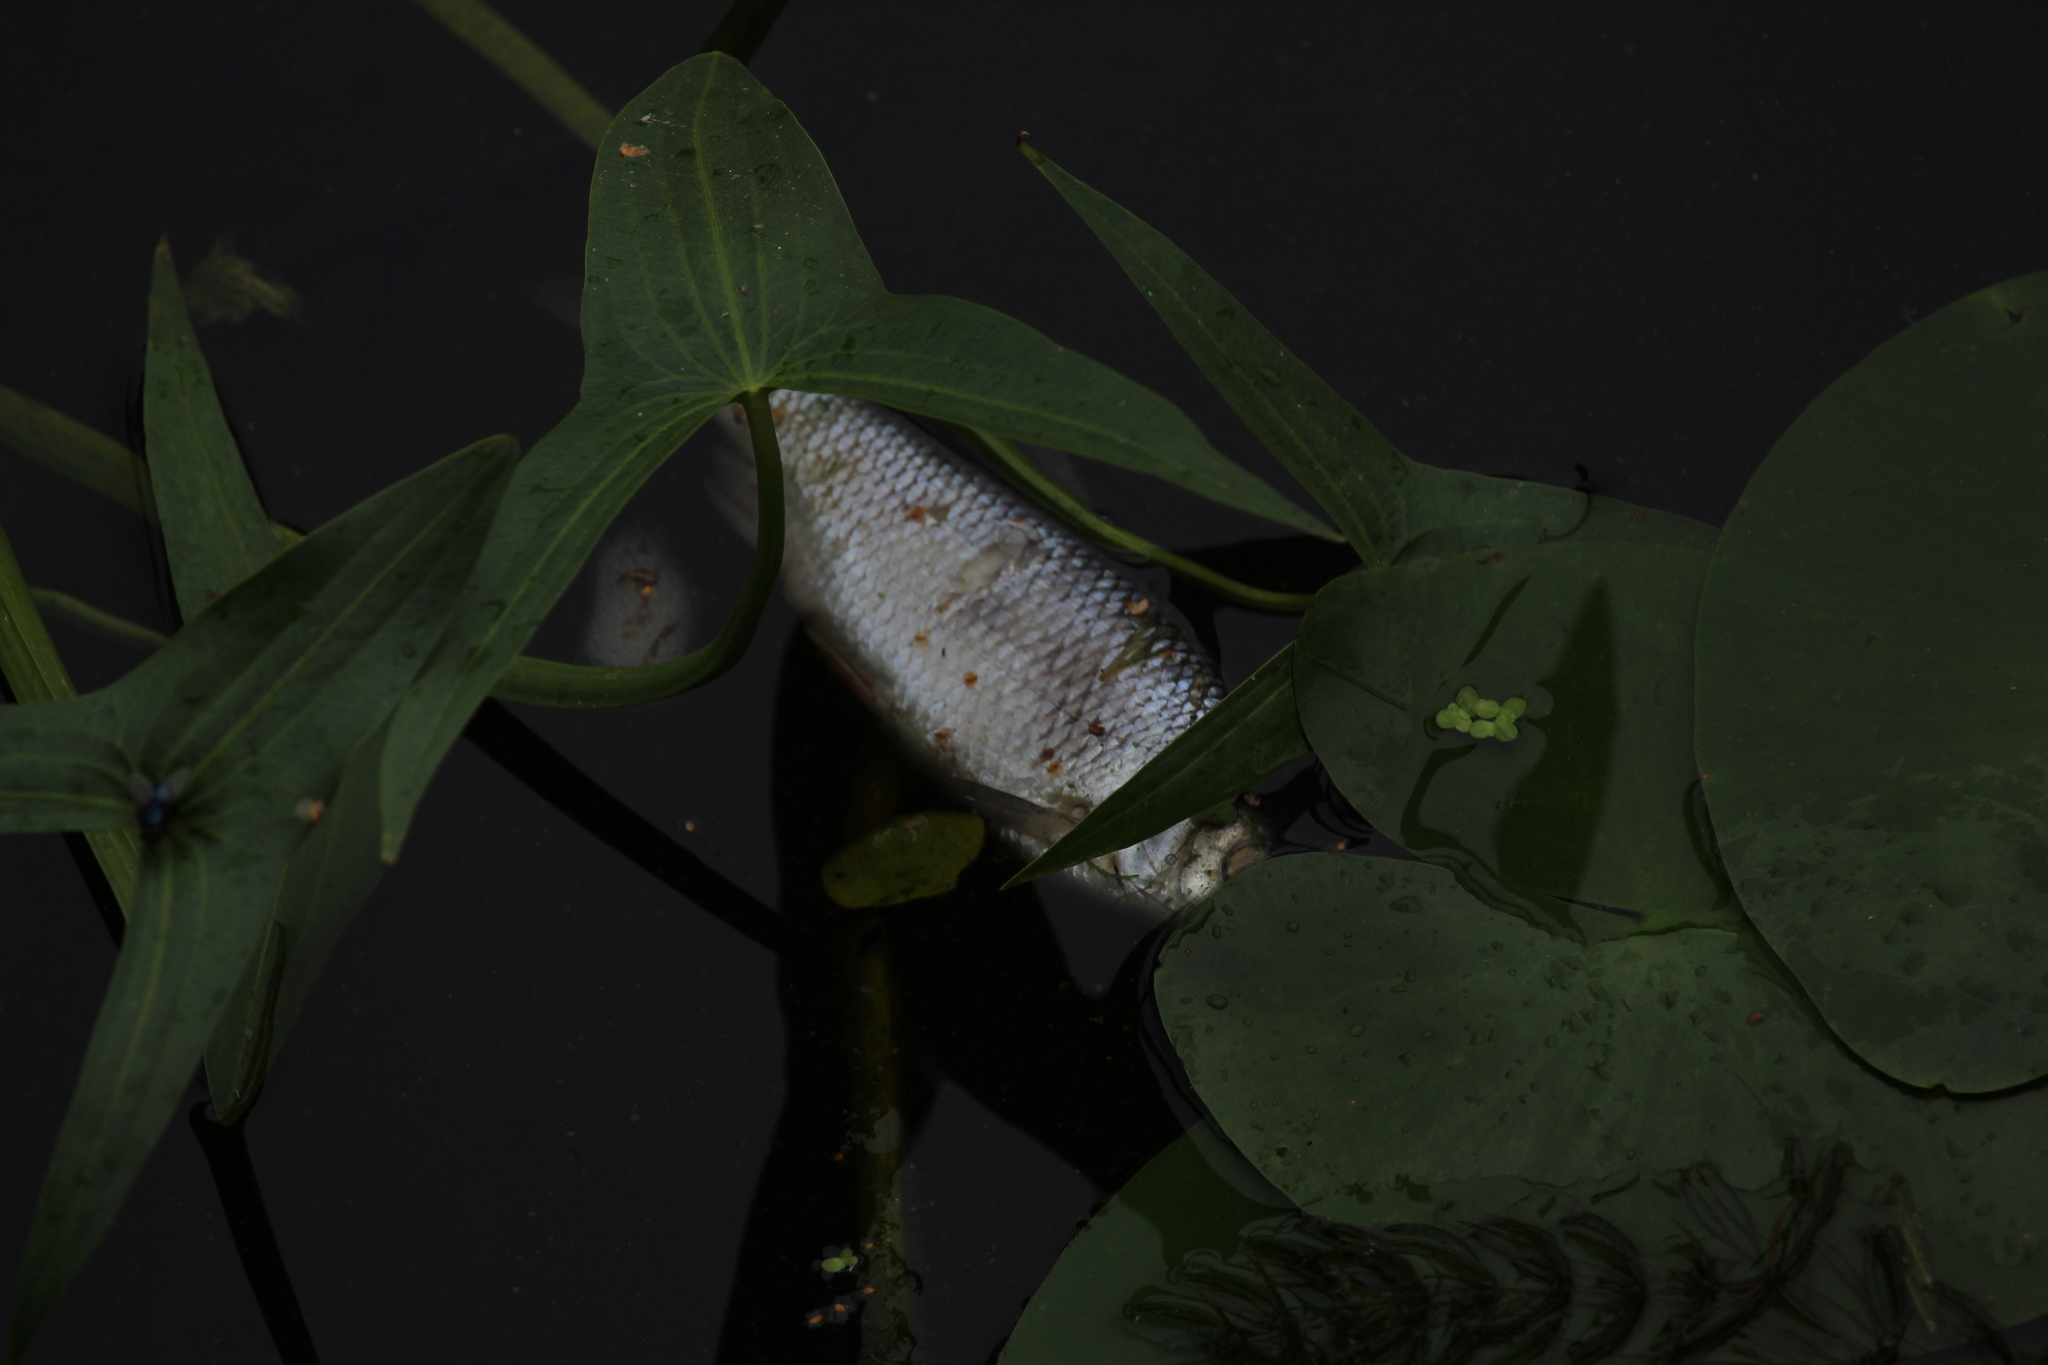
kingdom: Animalia
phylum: Chordata
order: Cypriniformes
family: Cyprinidae
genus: Rutilus
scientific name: Rutilus rutilus
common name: Roach
